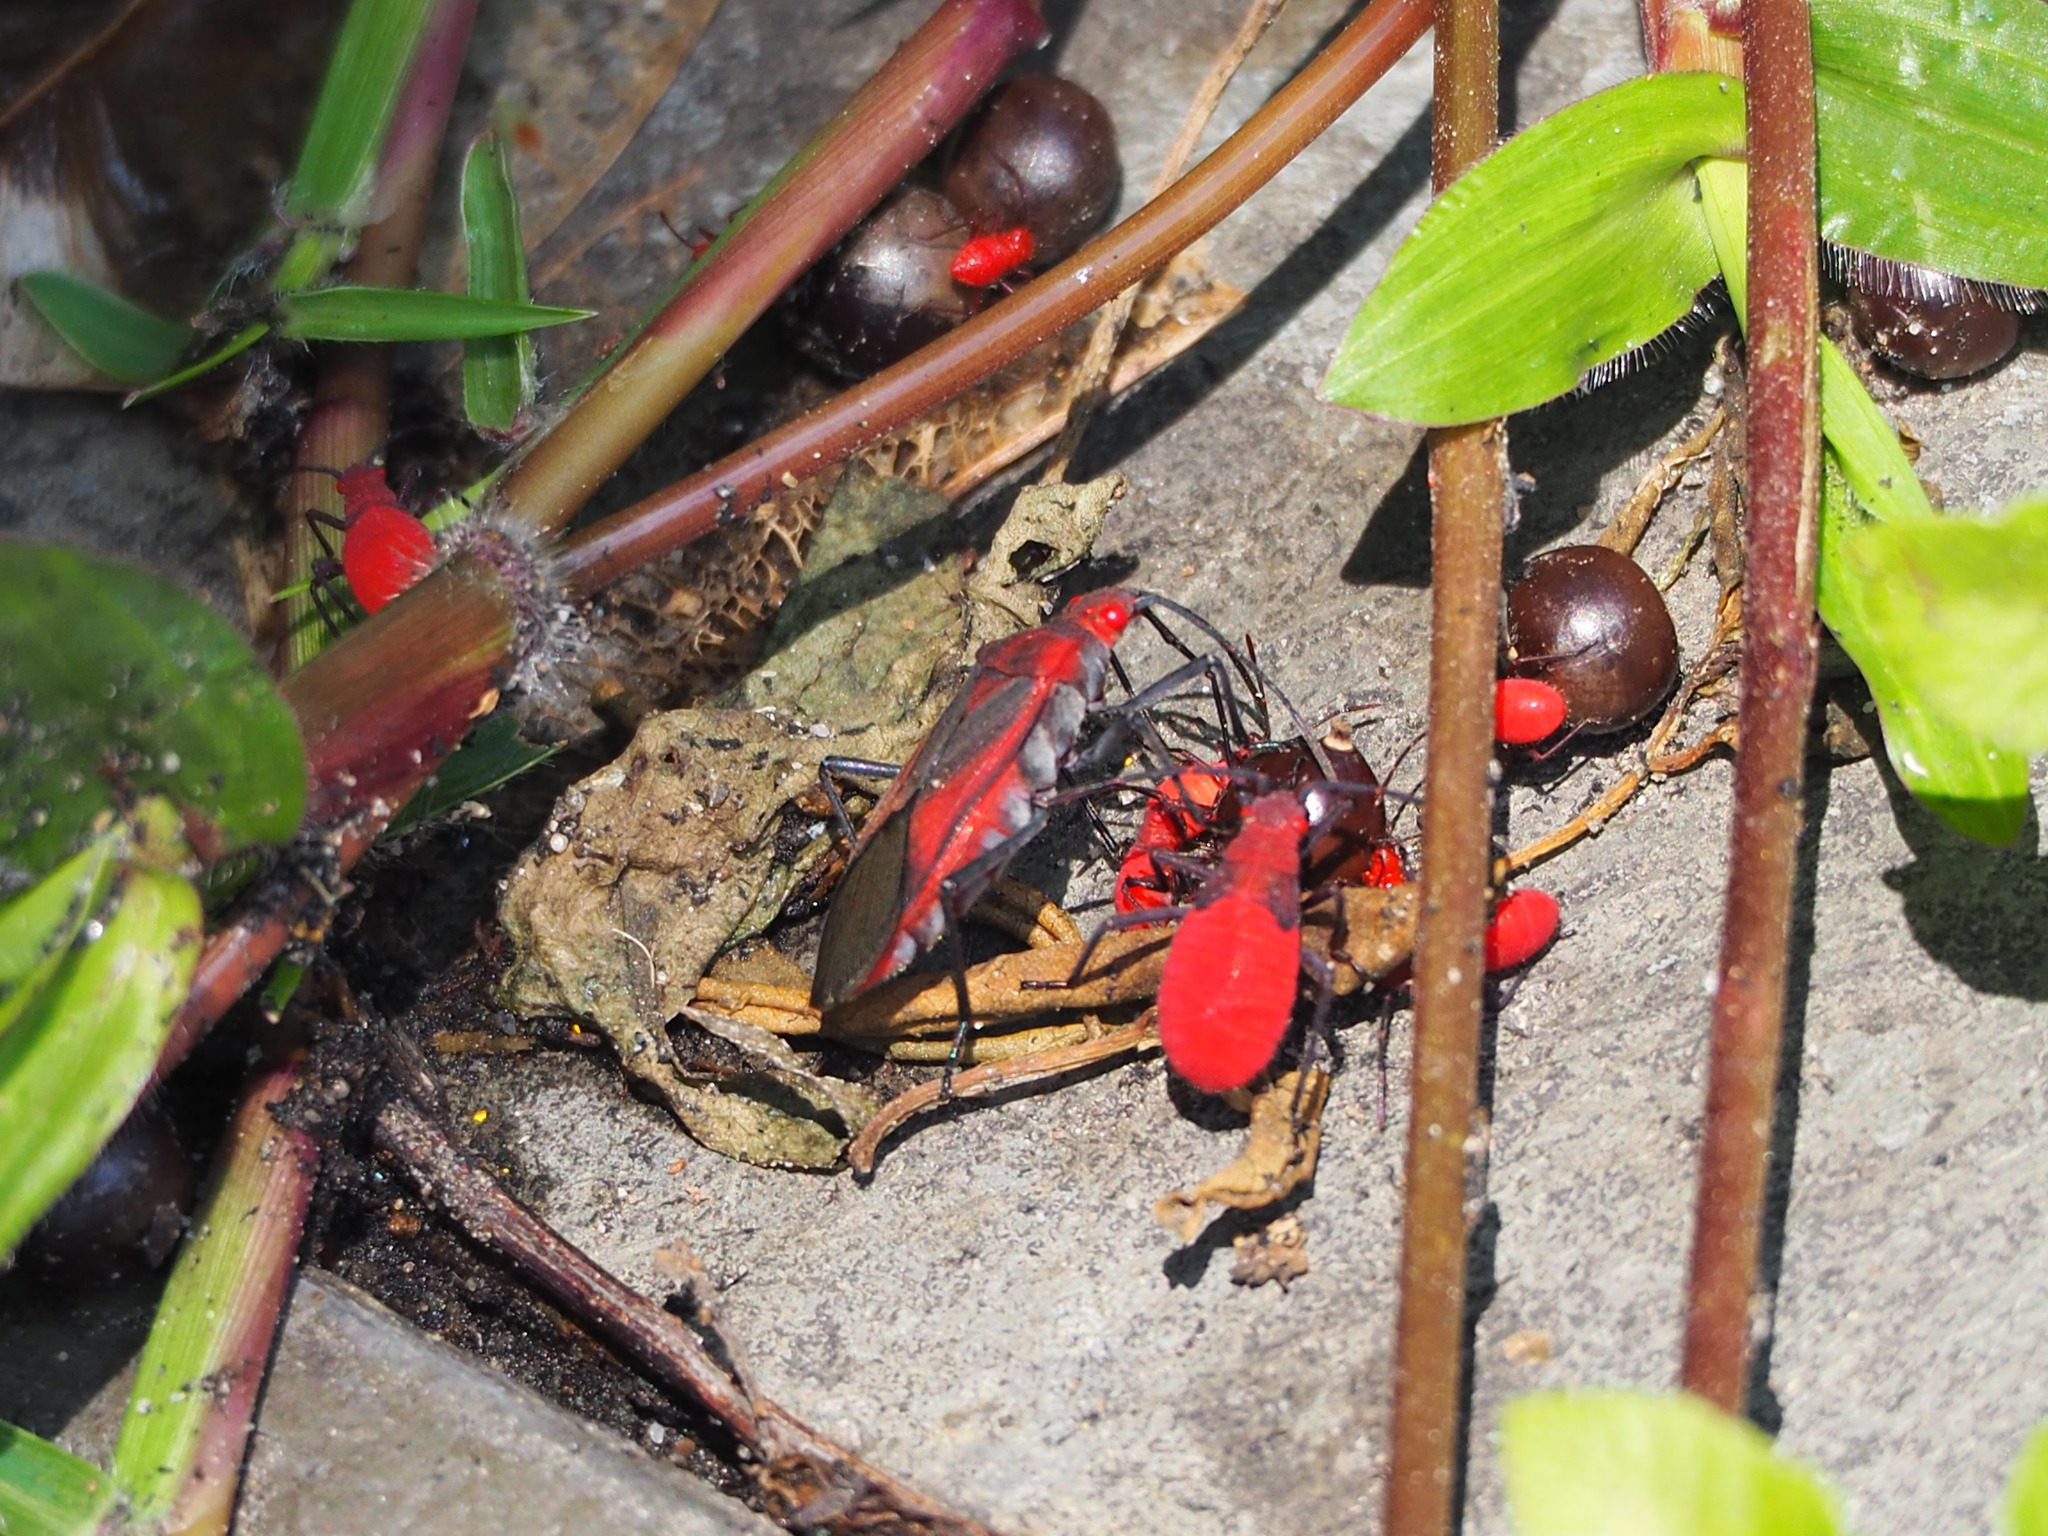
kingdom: Animalia
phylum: Arthropoda
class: Insecta
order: Hemiptera
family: Rhopalidae
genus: Leptocoris
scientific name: Leptocoris vicinus
